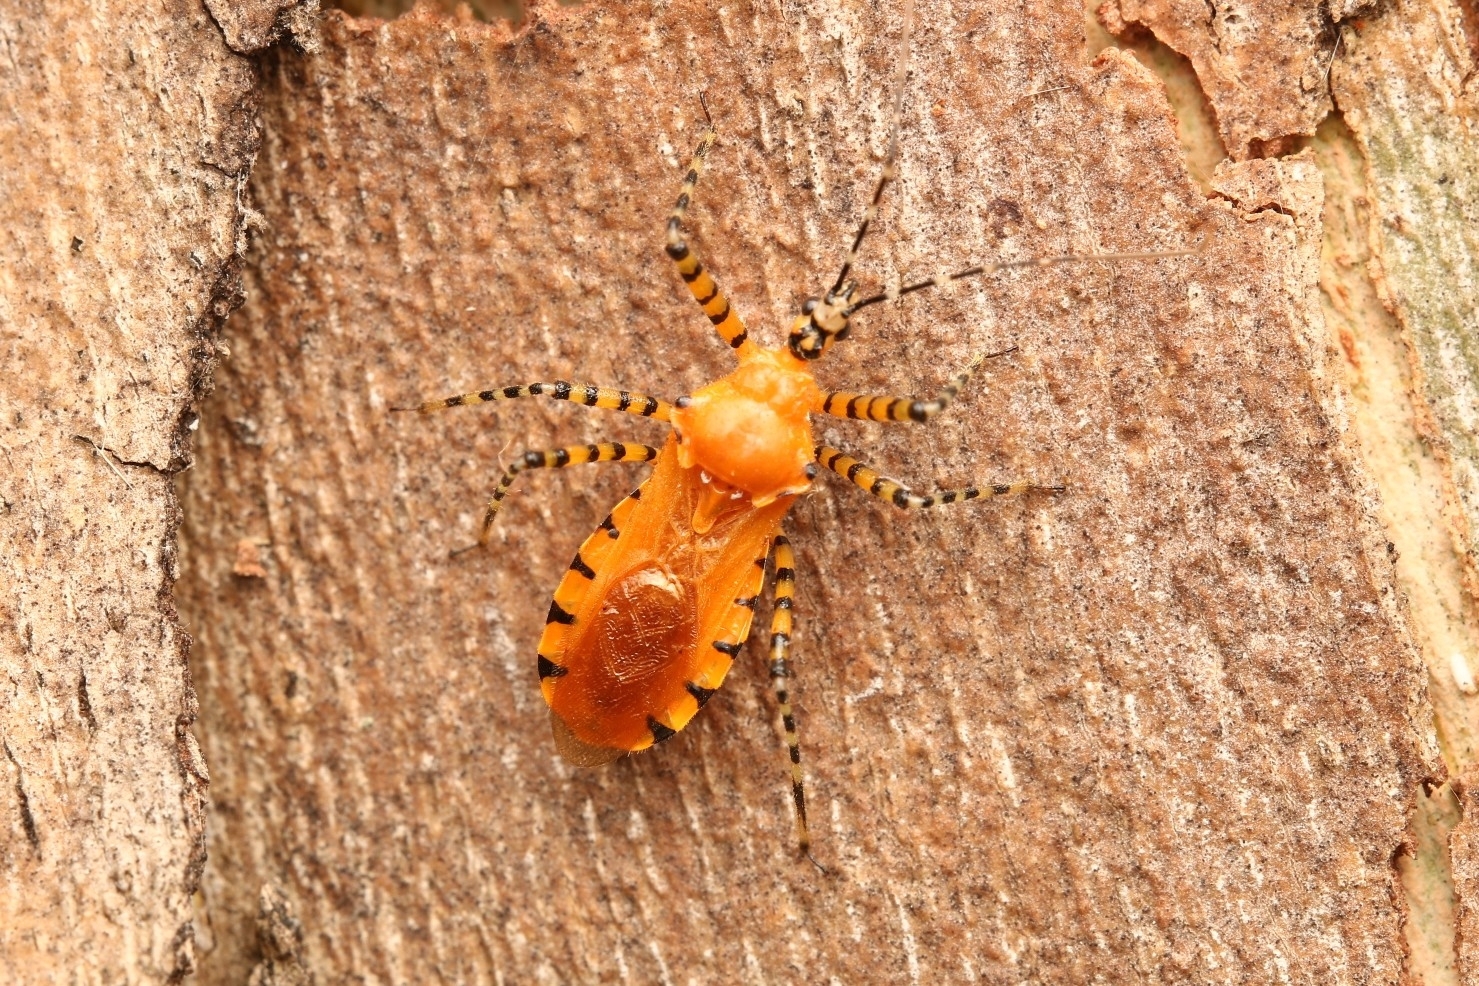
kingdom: Animalia
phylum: Arthropoda
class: Insecta
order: Hemiptera
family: Reduviidae
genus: Pselliopus
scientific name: Pselliopus barberi
